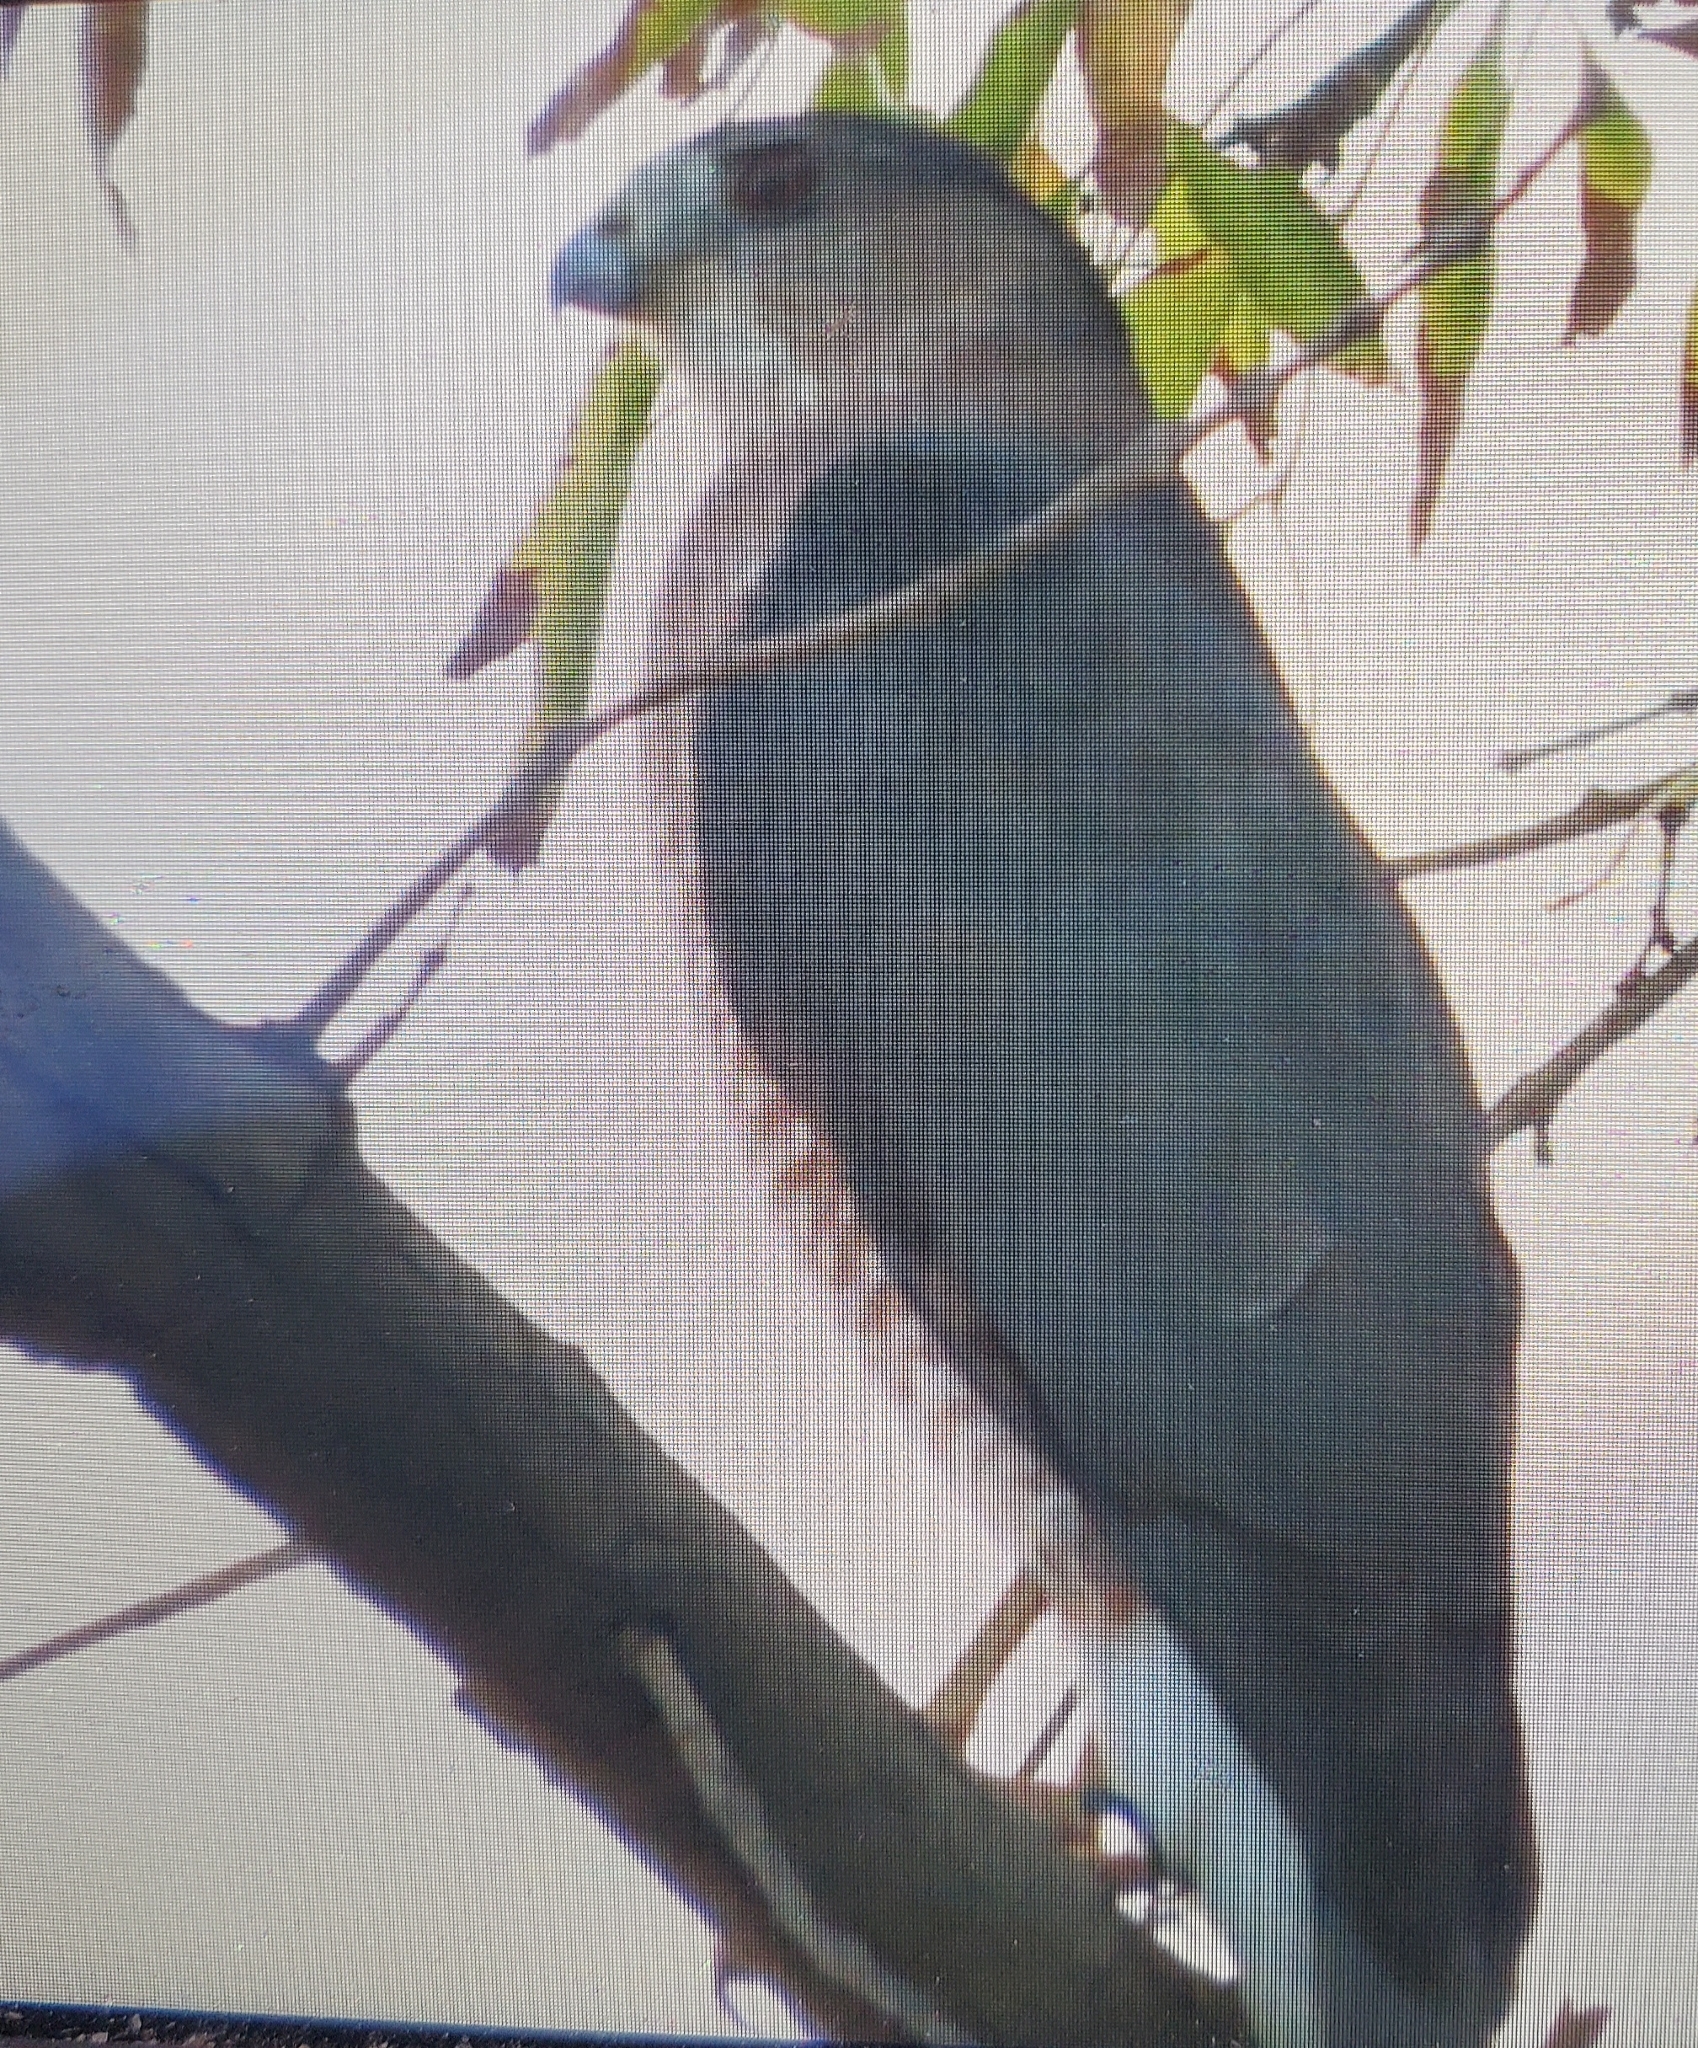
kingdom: Animalia
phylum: Chordata
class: Aves
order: Accipitriformes
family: Accipitridae
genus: Accipiter
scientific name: Accipiter cooperii
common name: Cooper's hawk
